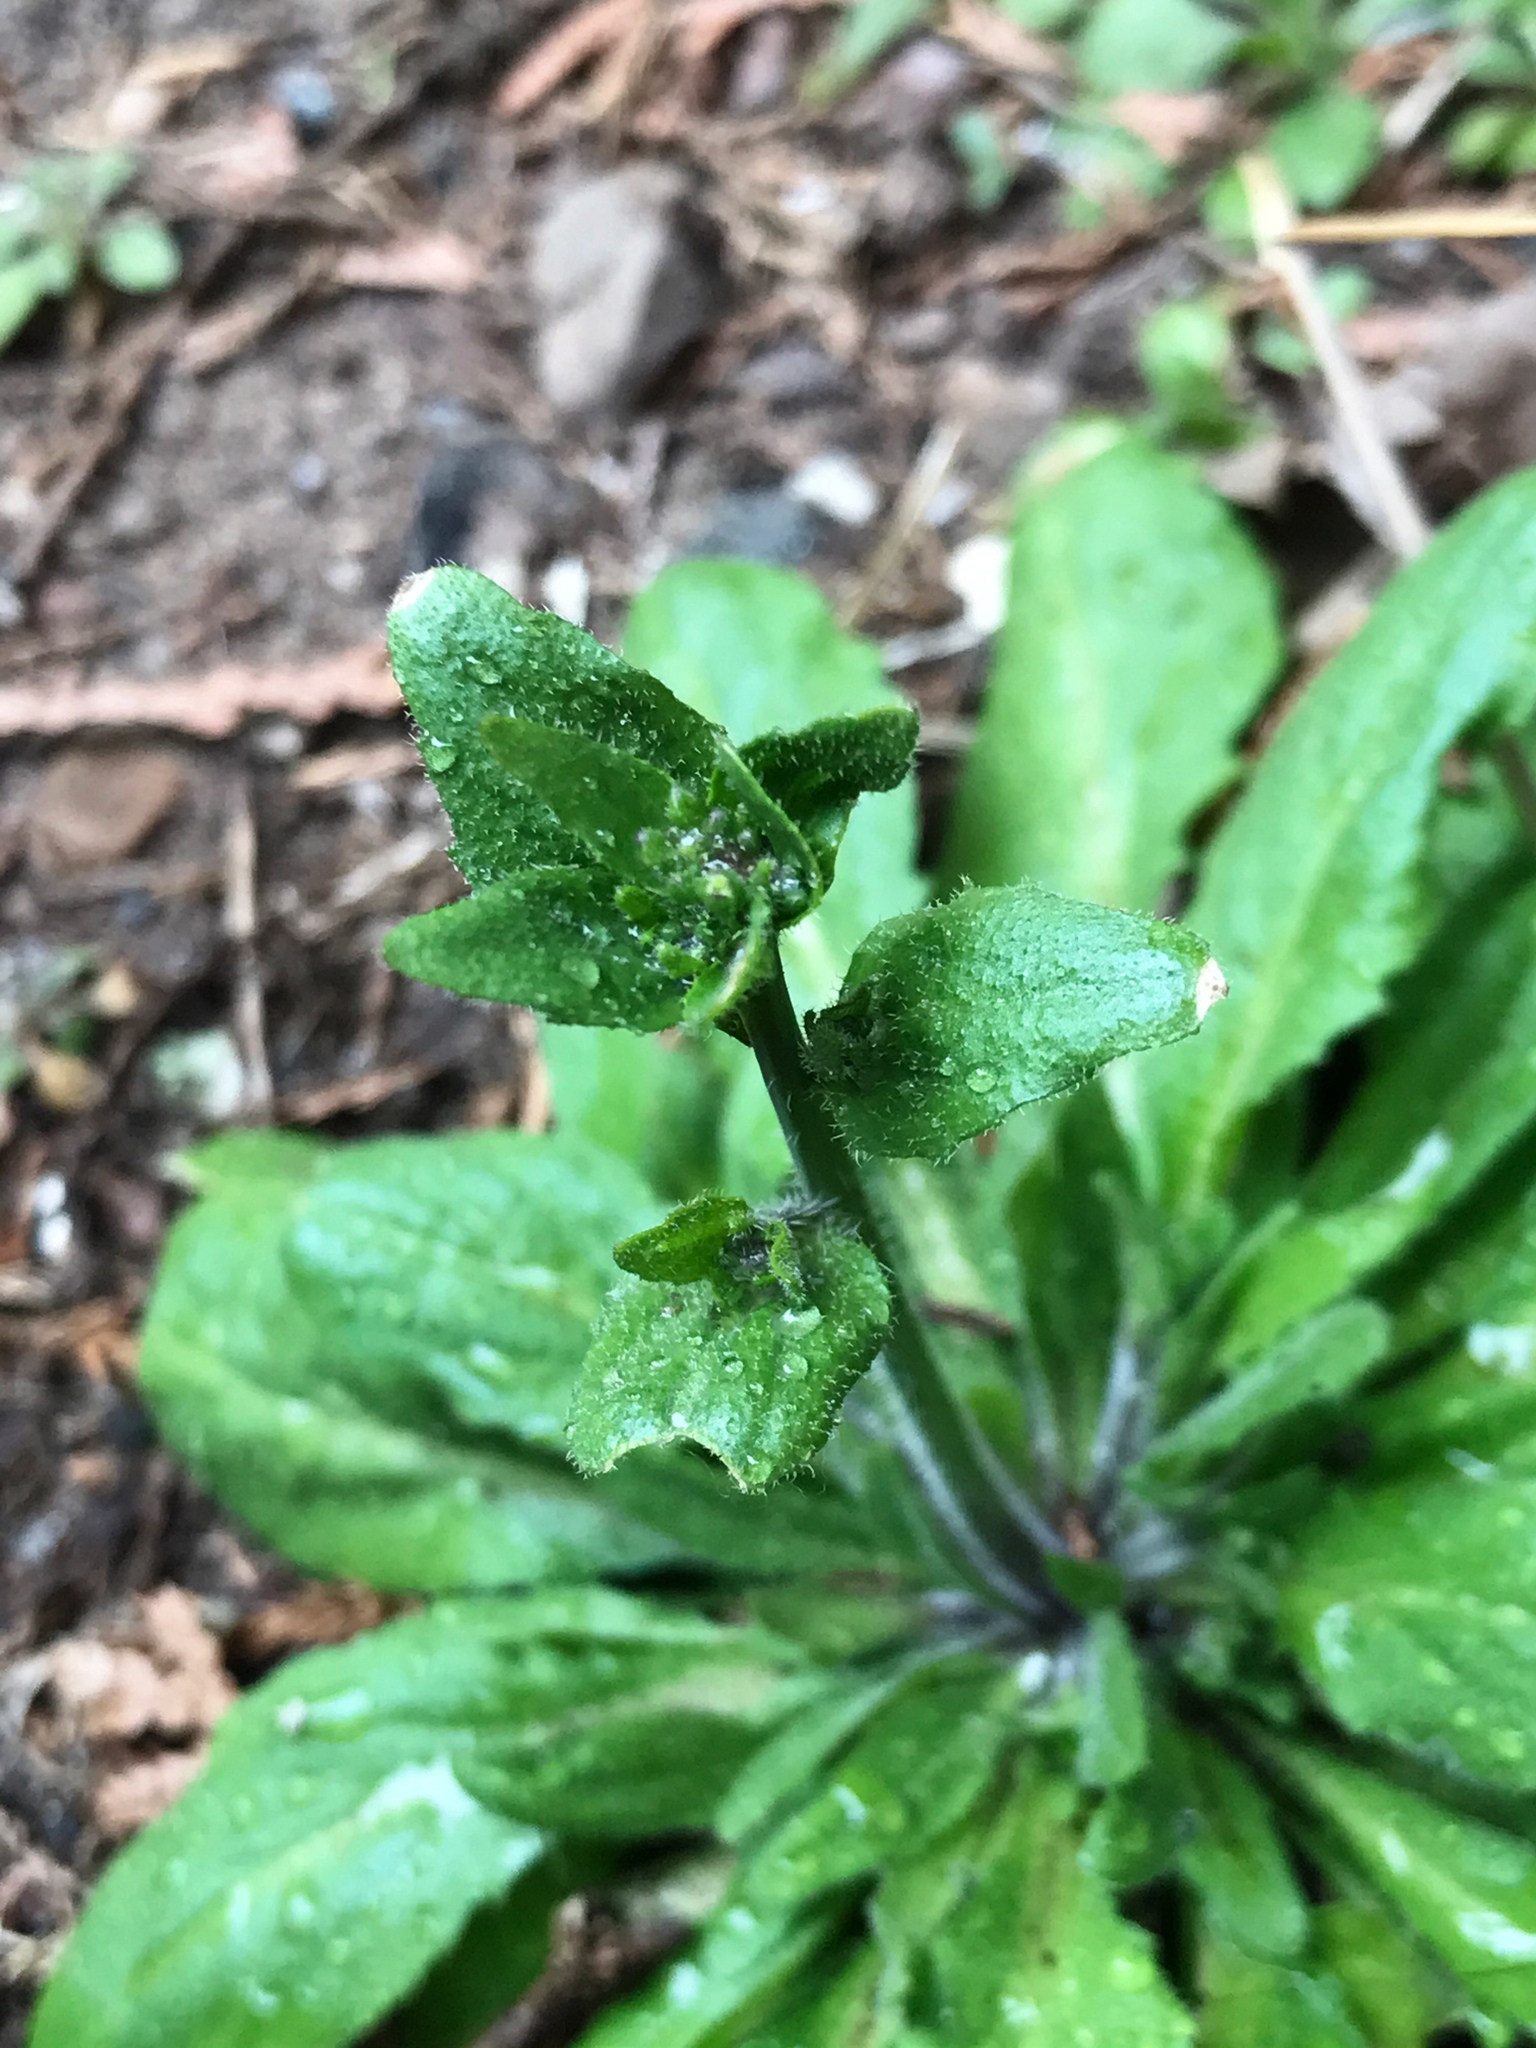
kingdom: Plantae
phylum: Tracheophyta
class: Magnoliopsida
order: Asterales
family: Asteraceae
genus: Erigeron
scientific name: Erigeron pulchellus
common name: Hairy fleabane
